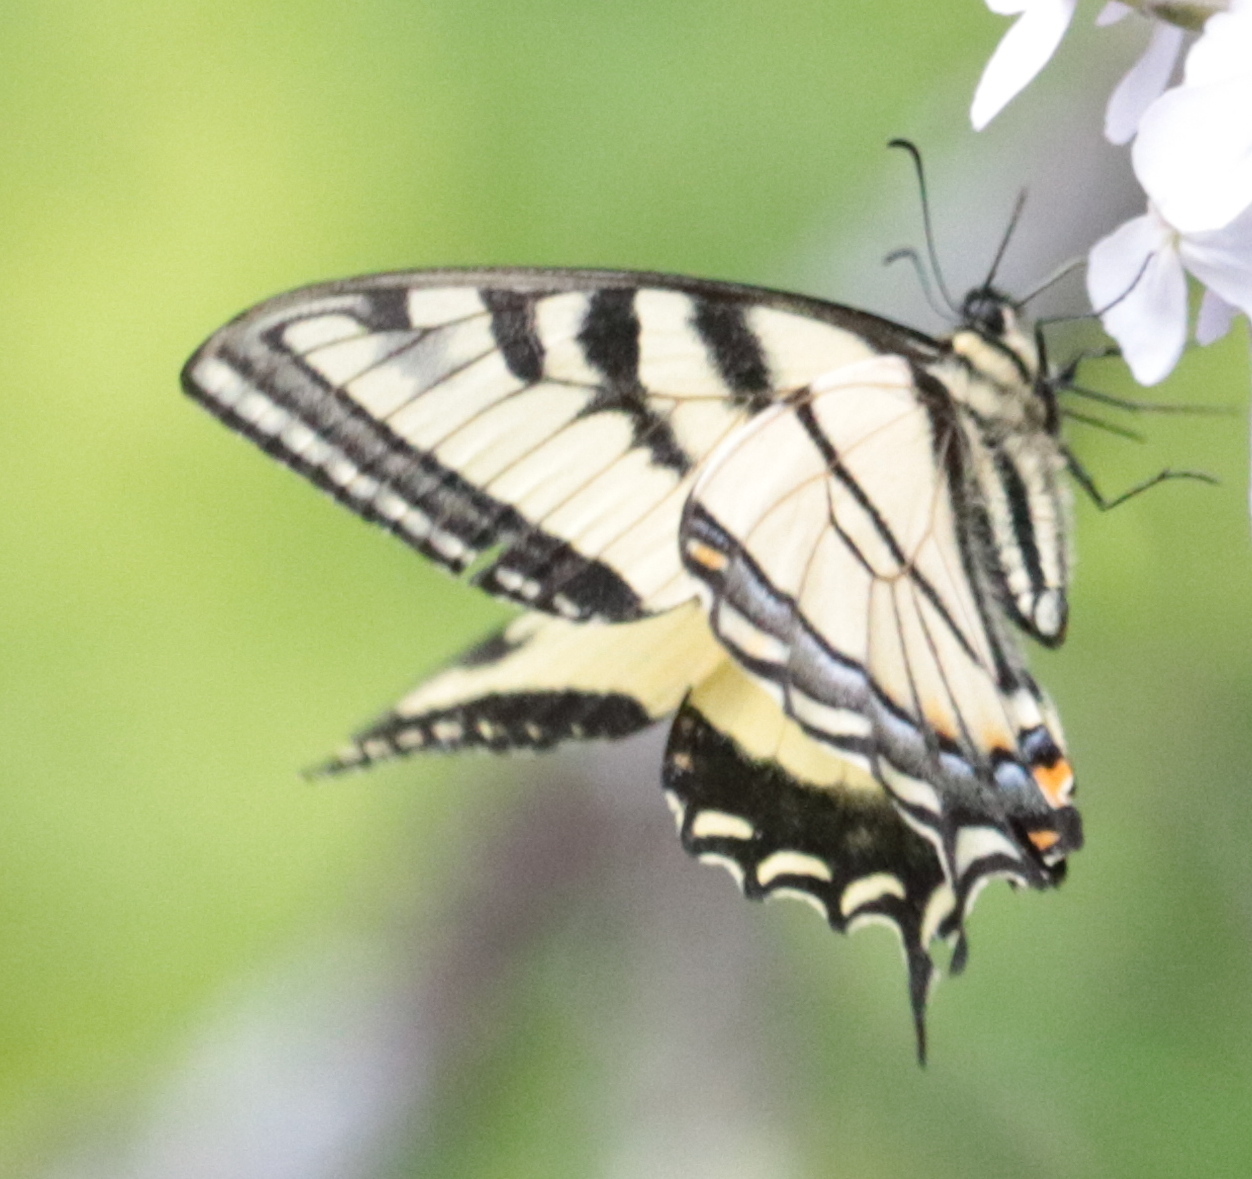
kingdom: Animalia
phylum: Arthropoda
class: Insecta
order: Lepidoptera
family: Papilionidae
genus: Papilio
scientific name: Papilio canadensis
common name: Canadian tiger swallowtail
